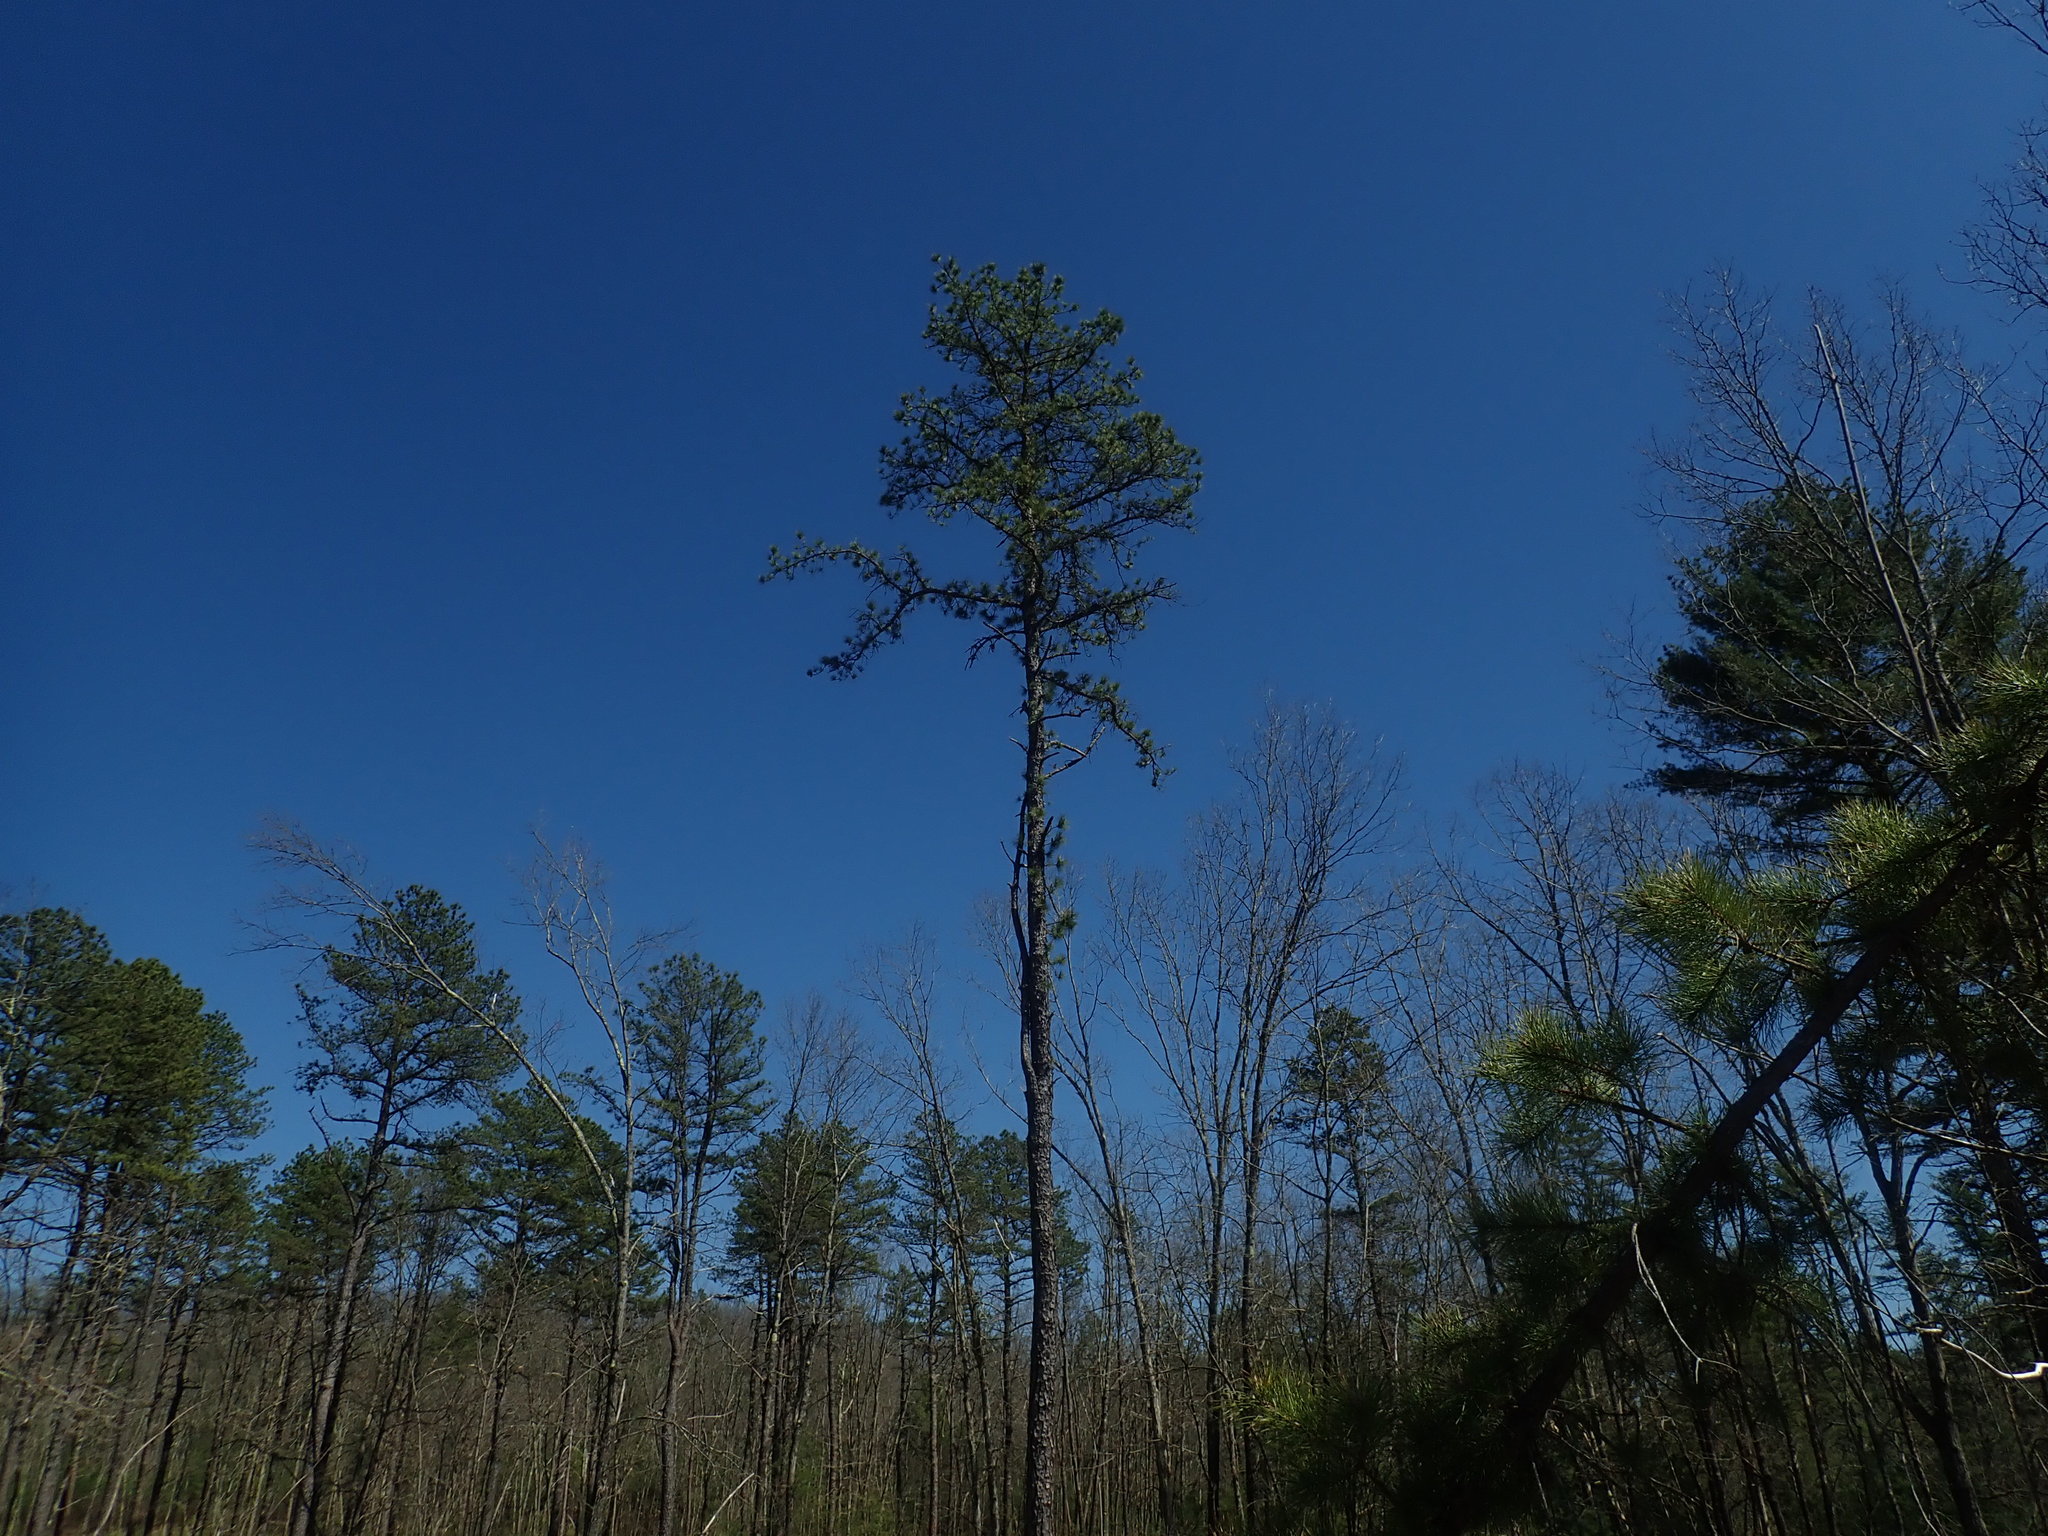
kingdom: Plantae
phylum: Tracheophyta
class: Pinopsida
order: Pinales
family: Pinaceae
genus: Pinus
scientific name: Pinus rigida
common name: Pitch pine
